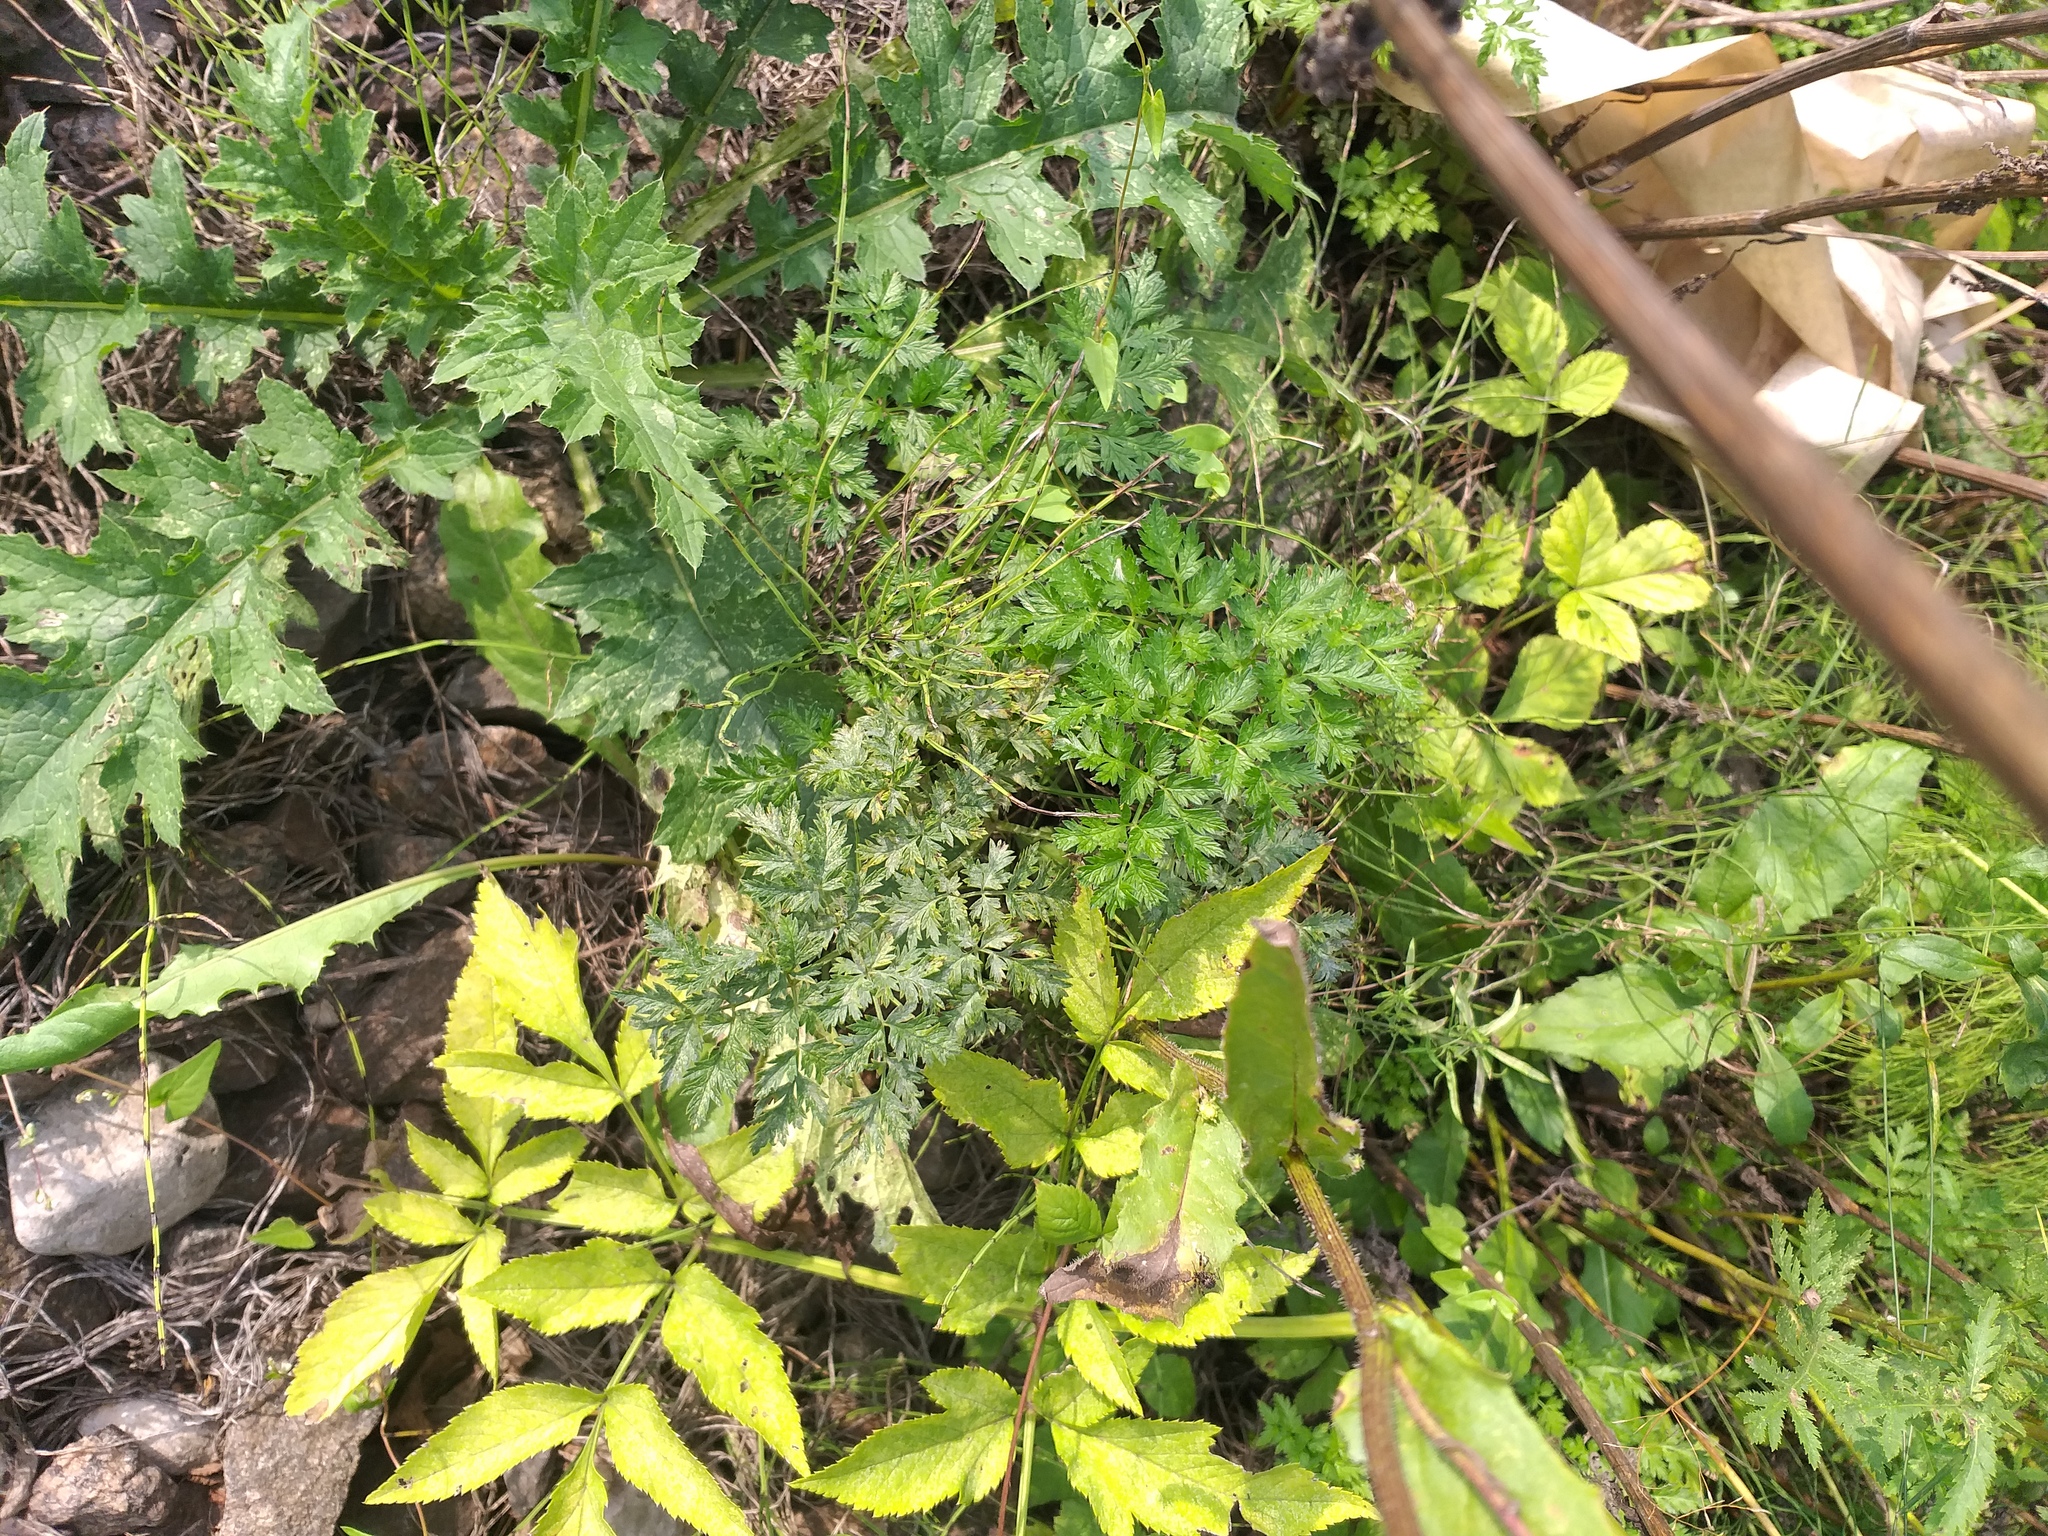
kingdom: Plantae
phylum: Tracheophyta
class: Magnoliopsida
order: Apiales
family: Apiaceae
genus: Anthriscus
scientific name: Anthriscus sylvestris
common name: Cow parsley
